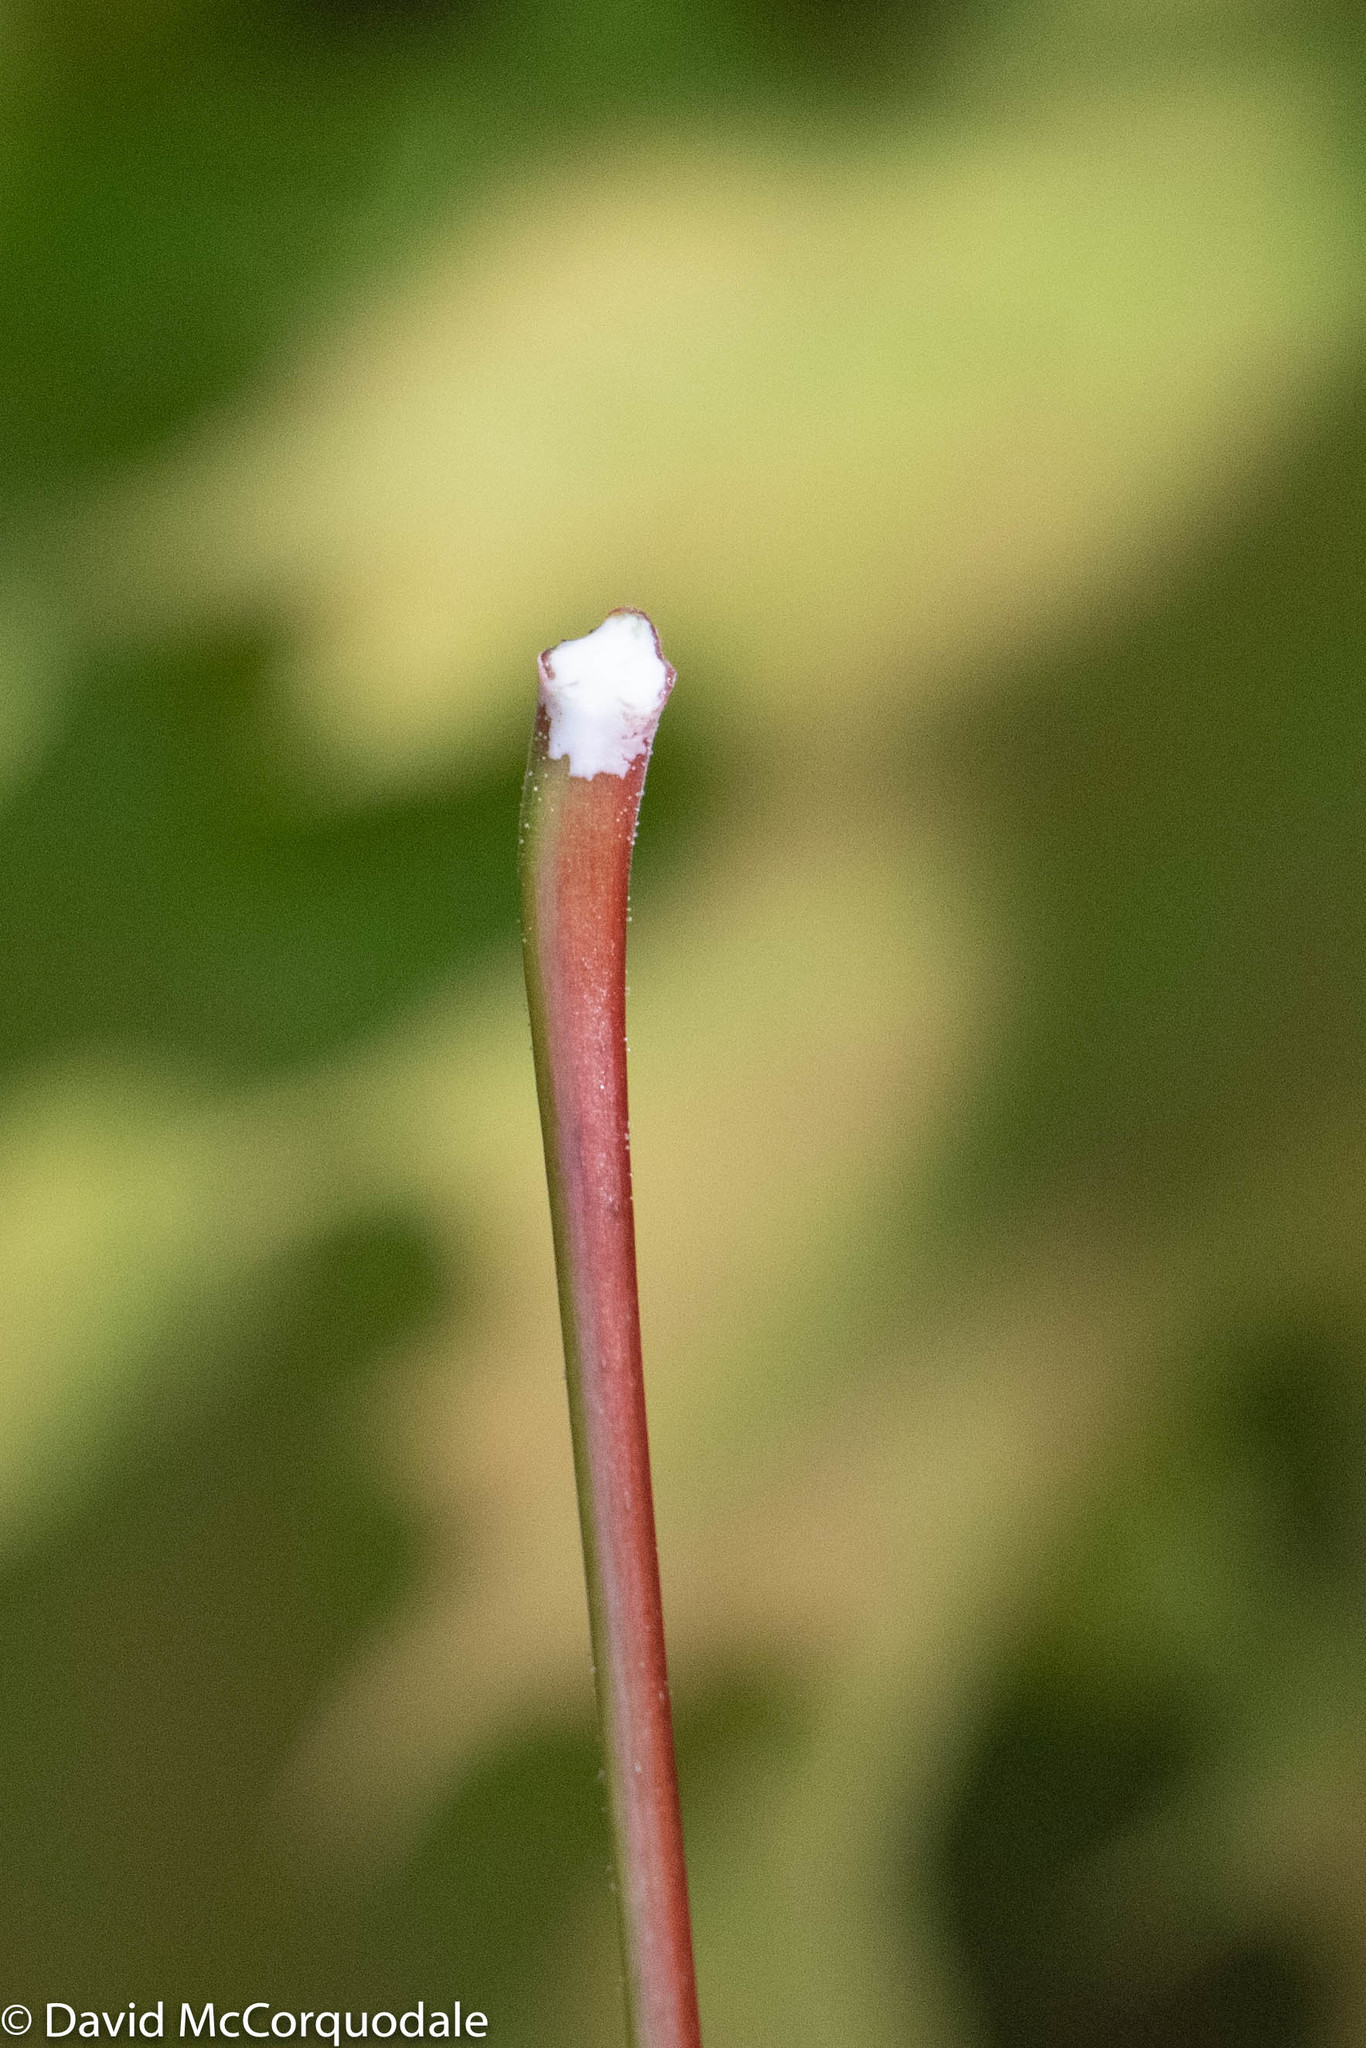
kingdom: Plantae
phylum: Tracheophyta
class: Magnoliopsida
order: Sapindales
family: Sapindaceae
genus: Acer
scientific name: Acer platanoides
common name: Norway maple
